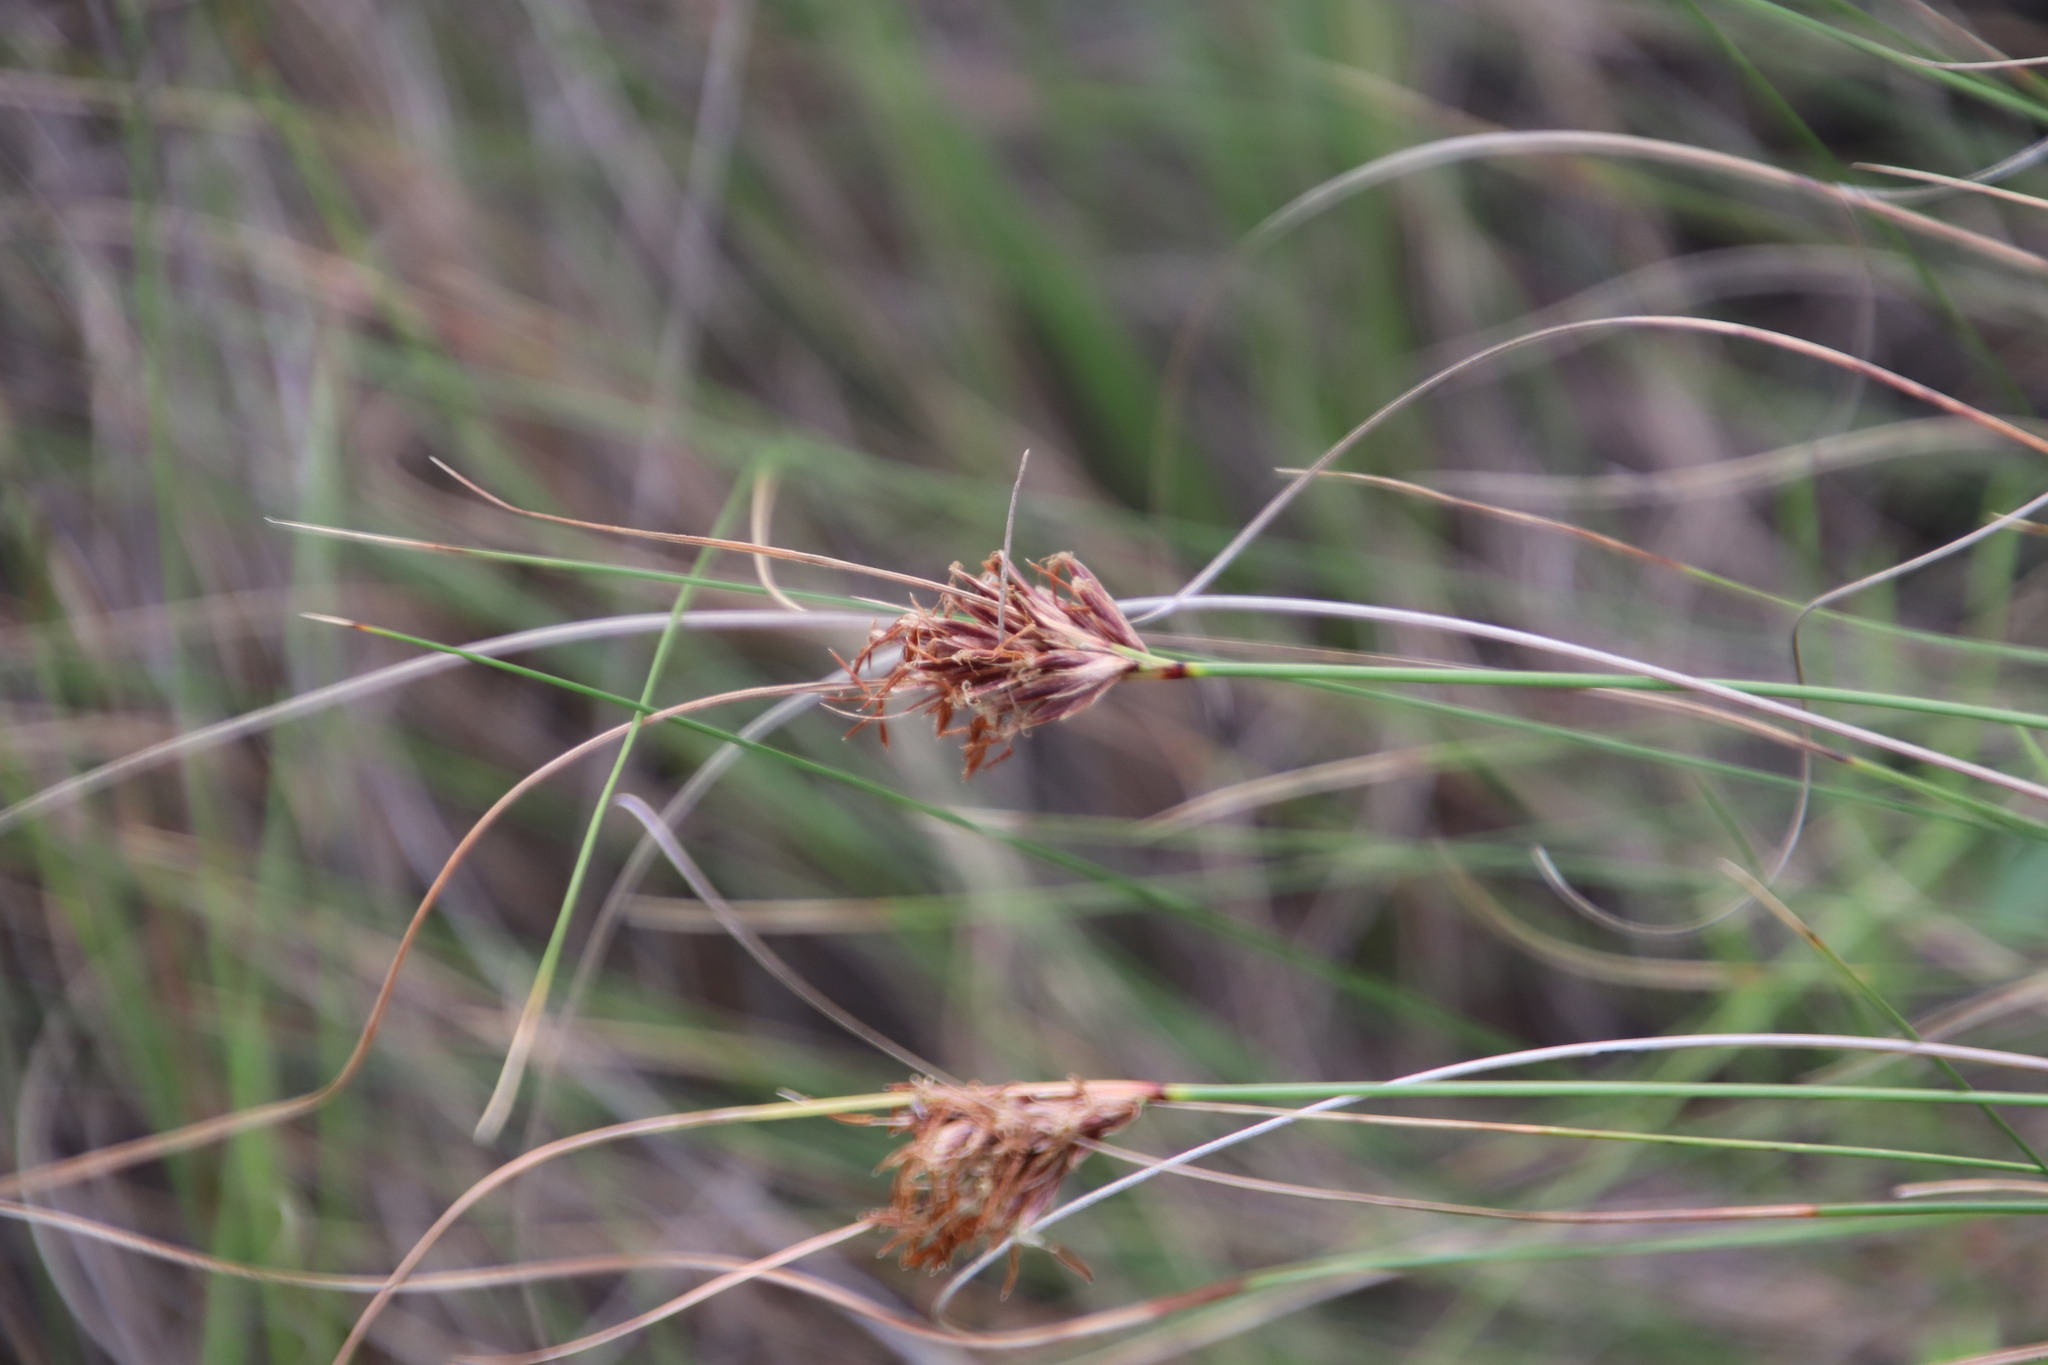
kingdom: Plantae
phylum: Tracheophyta
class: Liliopsida
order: Poales
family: Cyperaceae
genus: Tetraria
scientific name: Tetraria crinifolia
